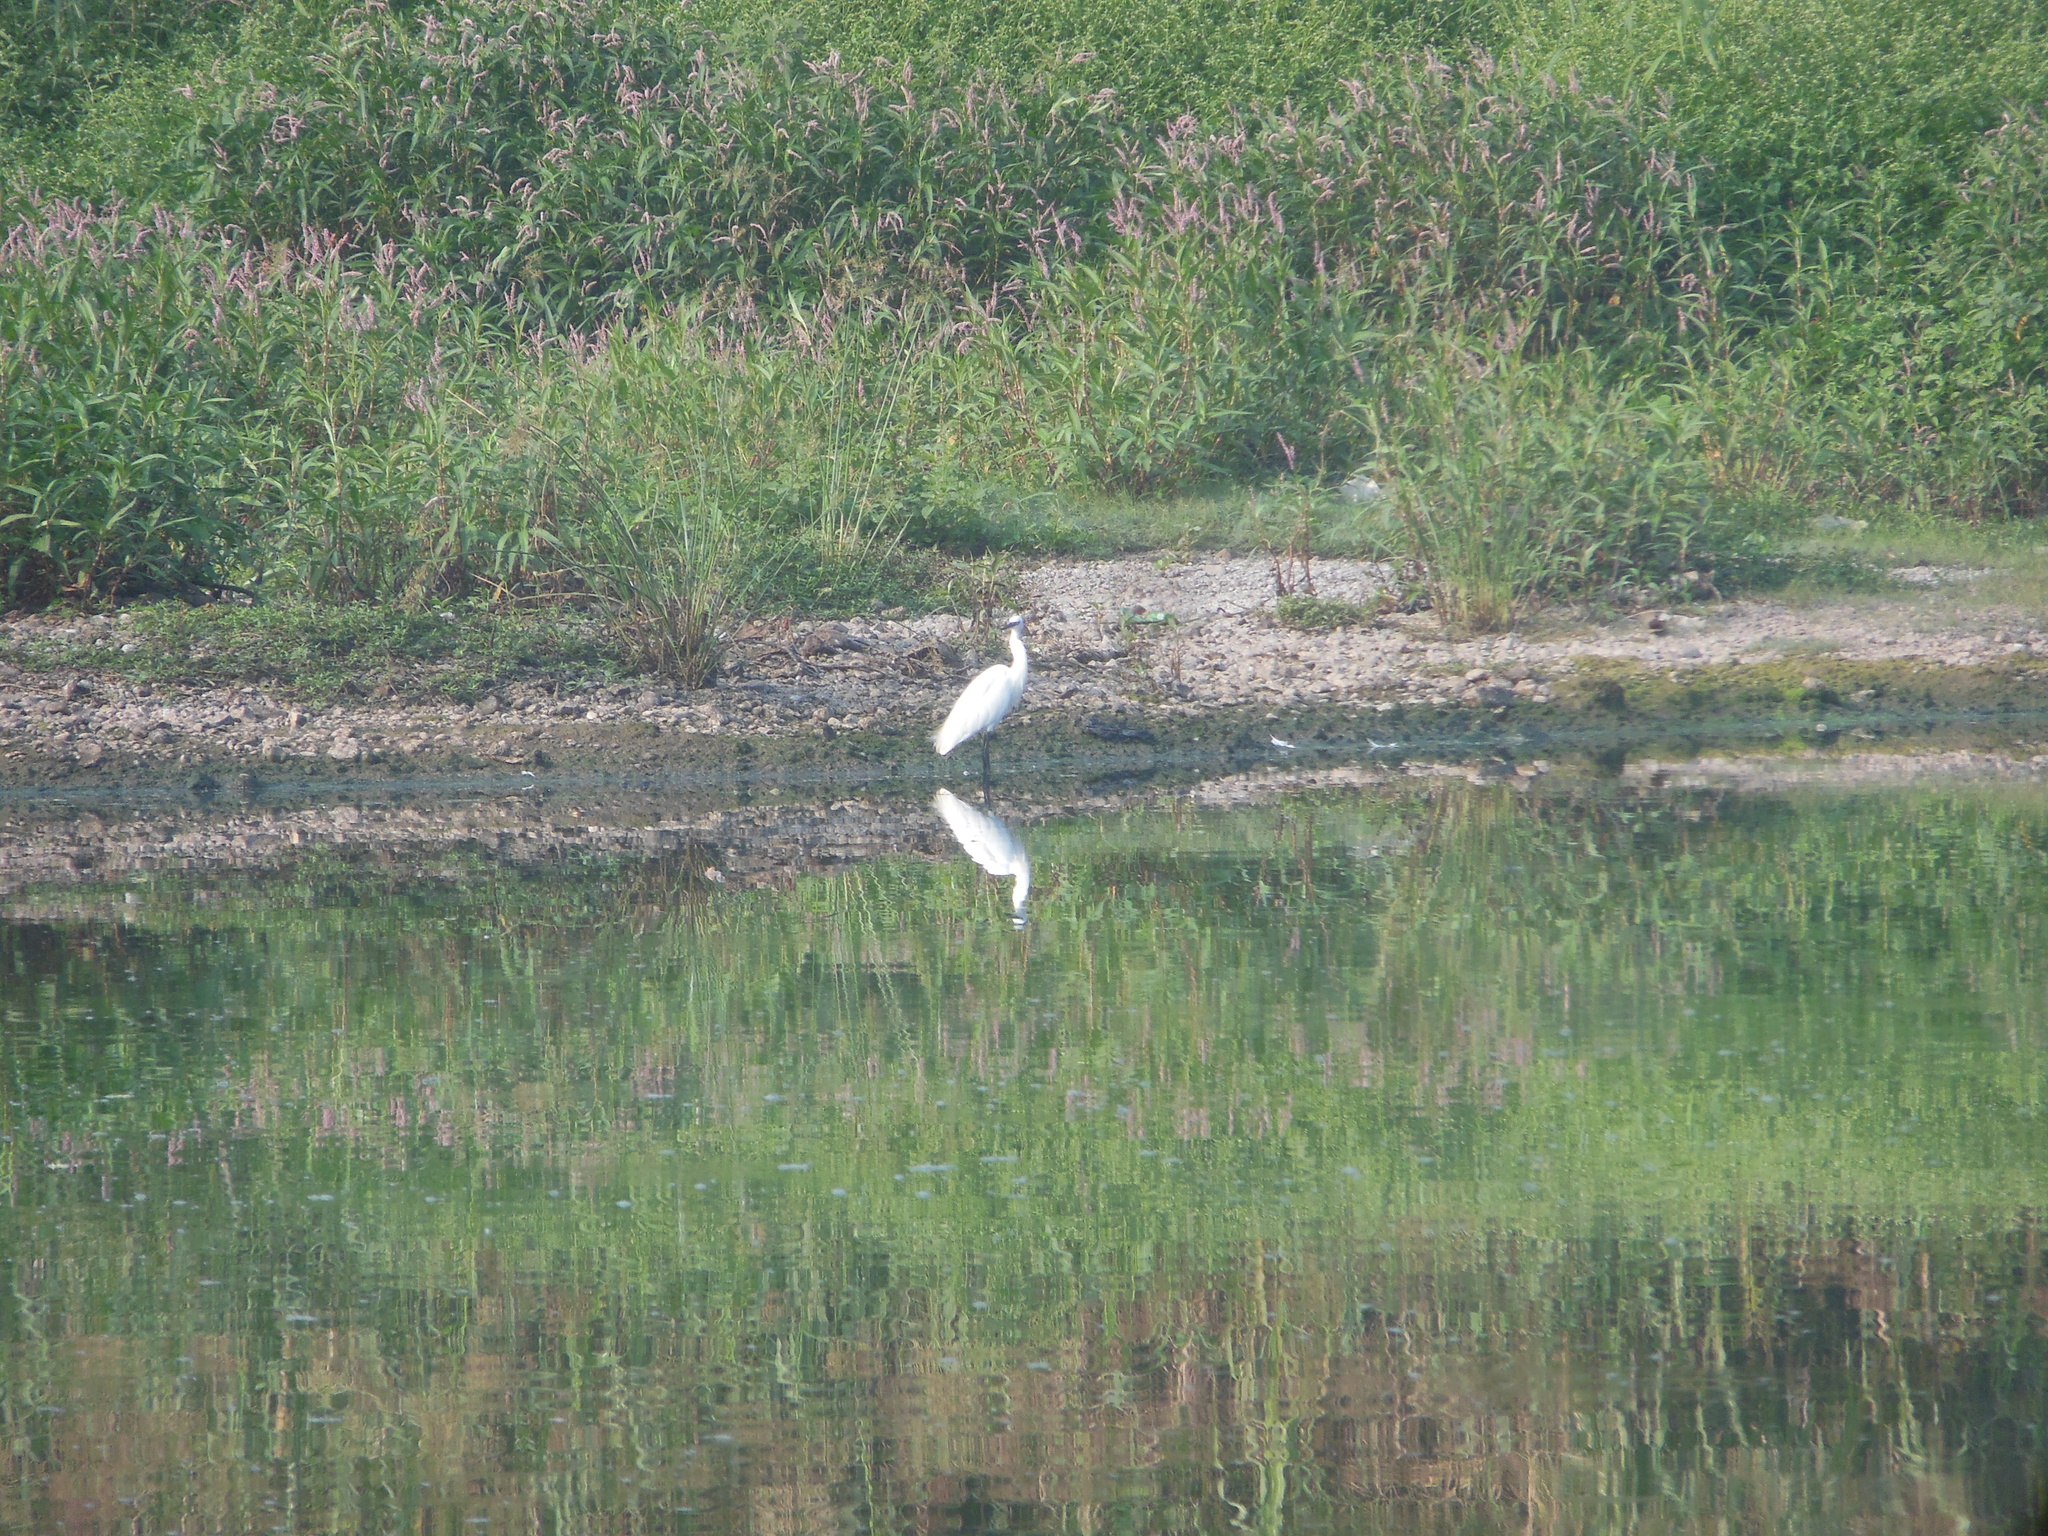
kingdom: Animalia
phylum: Chordata
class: Aves
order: Pelecaniformes
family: Ardeidae
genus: Egretta
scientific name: Egretta garzetta
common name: Little egret
